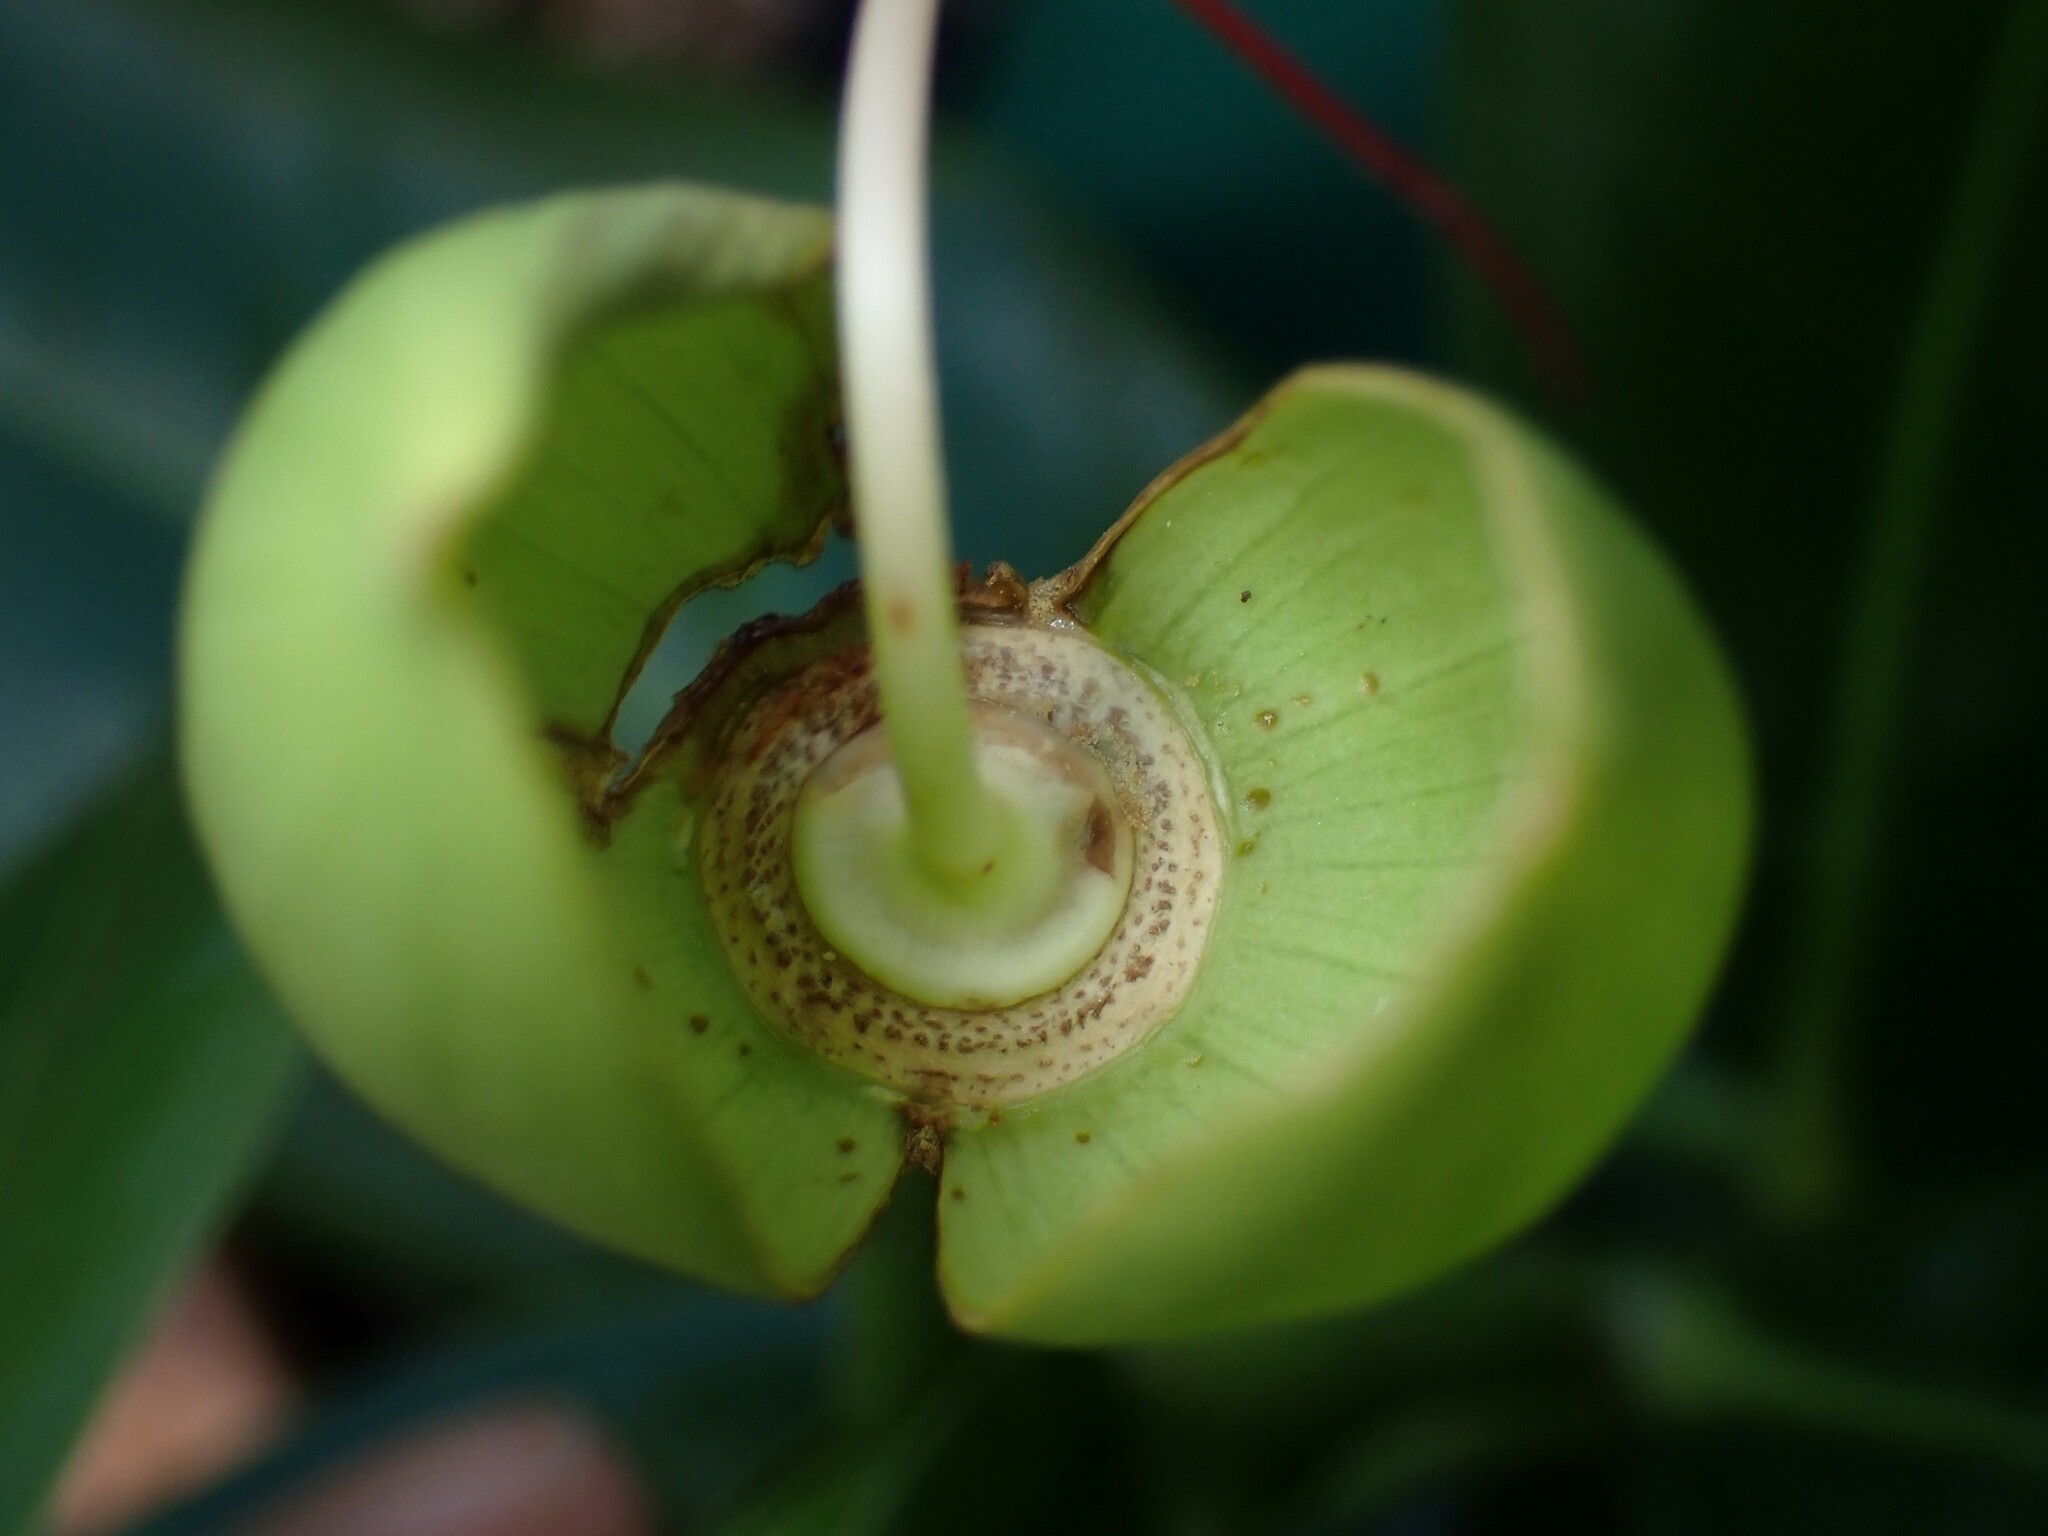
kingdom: Plantae
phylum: Tracheophyta
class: Magnoliopsida
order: Ericales
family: Lecythidaceae
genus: Barringtonia
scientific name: Barringtonia asiatica
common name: Mango-pine
